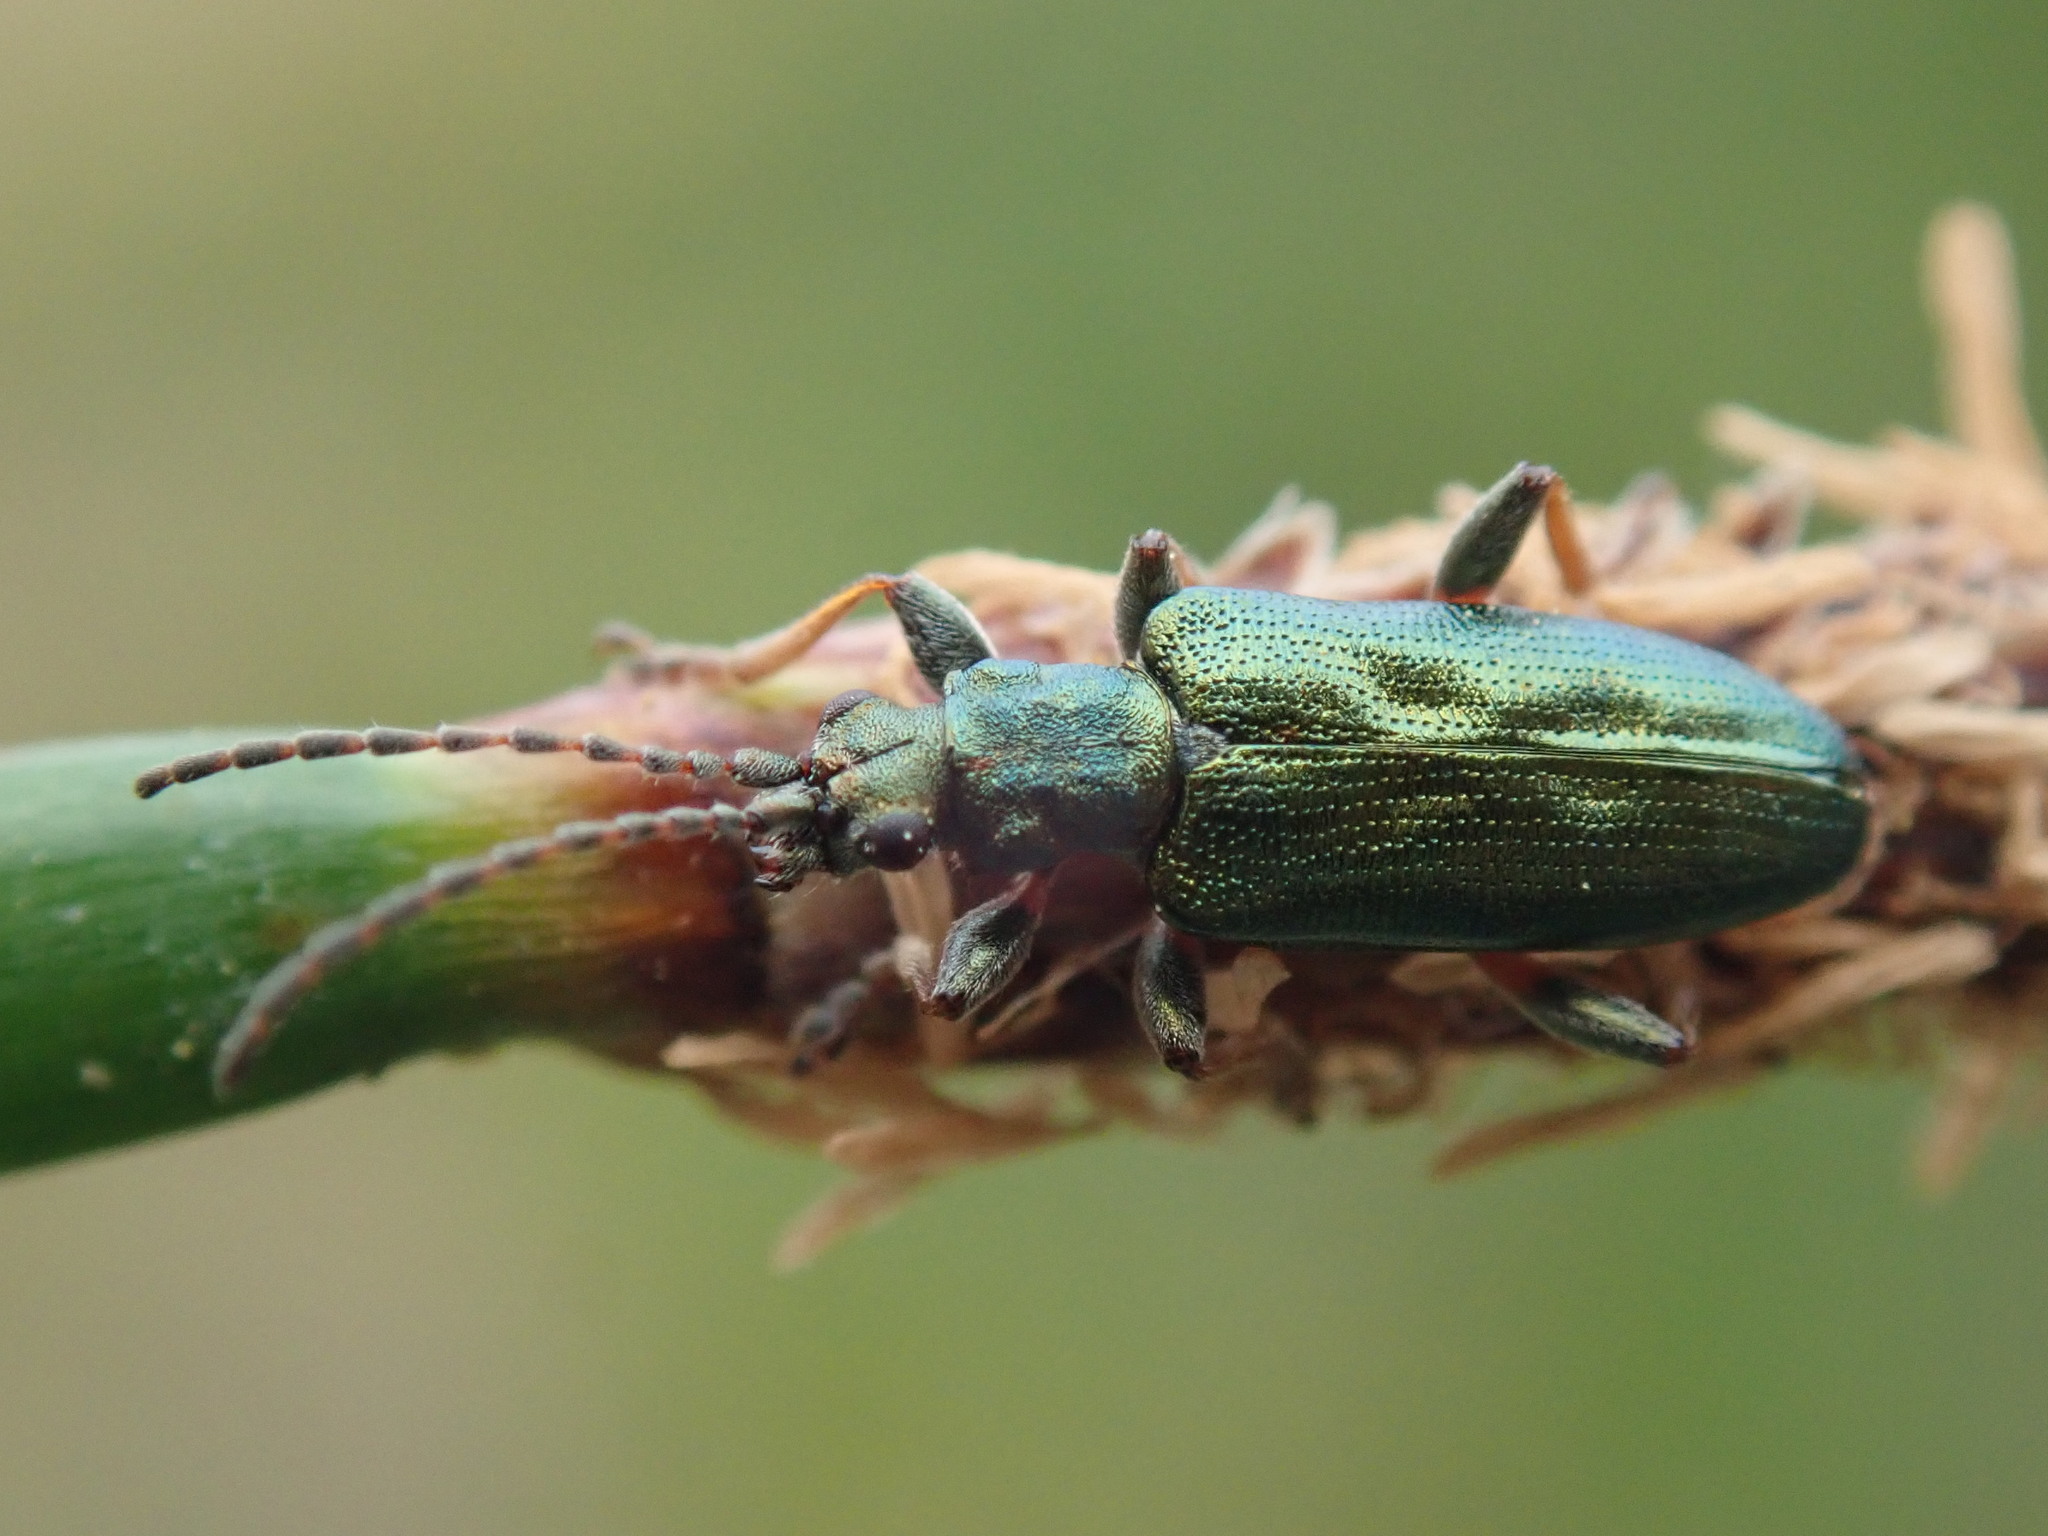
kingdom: Animalia
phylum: Arthropoda
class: Insecta
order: Coleoptera
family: Chrysomelidae
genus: Plateumaris
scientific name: Plateumaris pusilla
